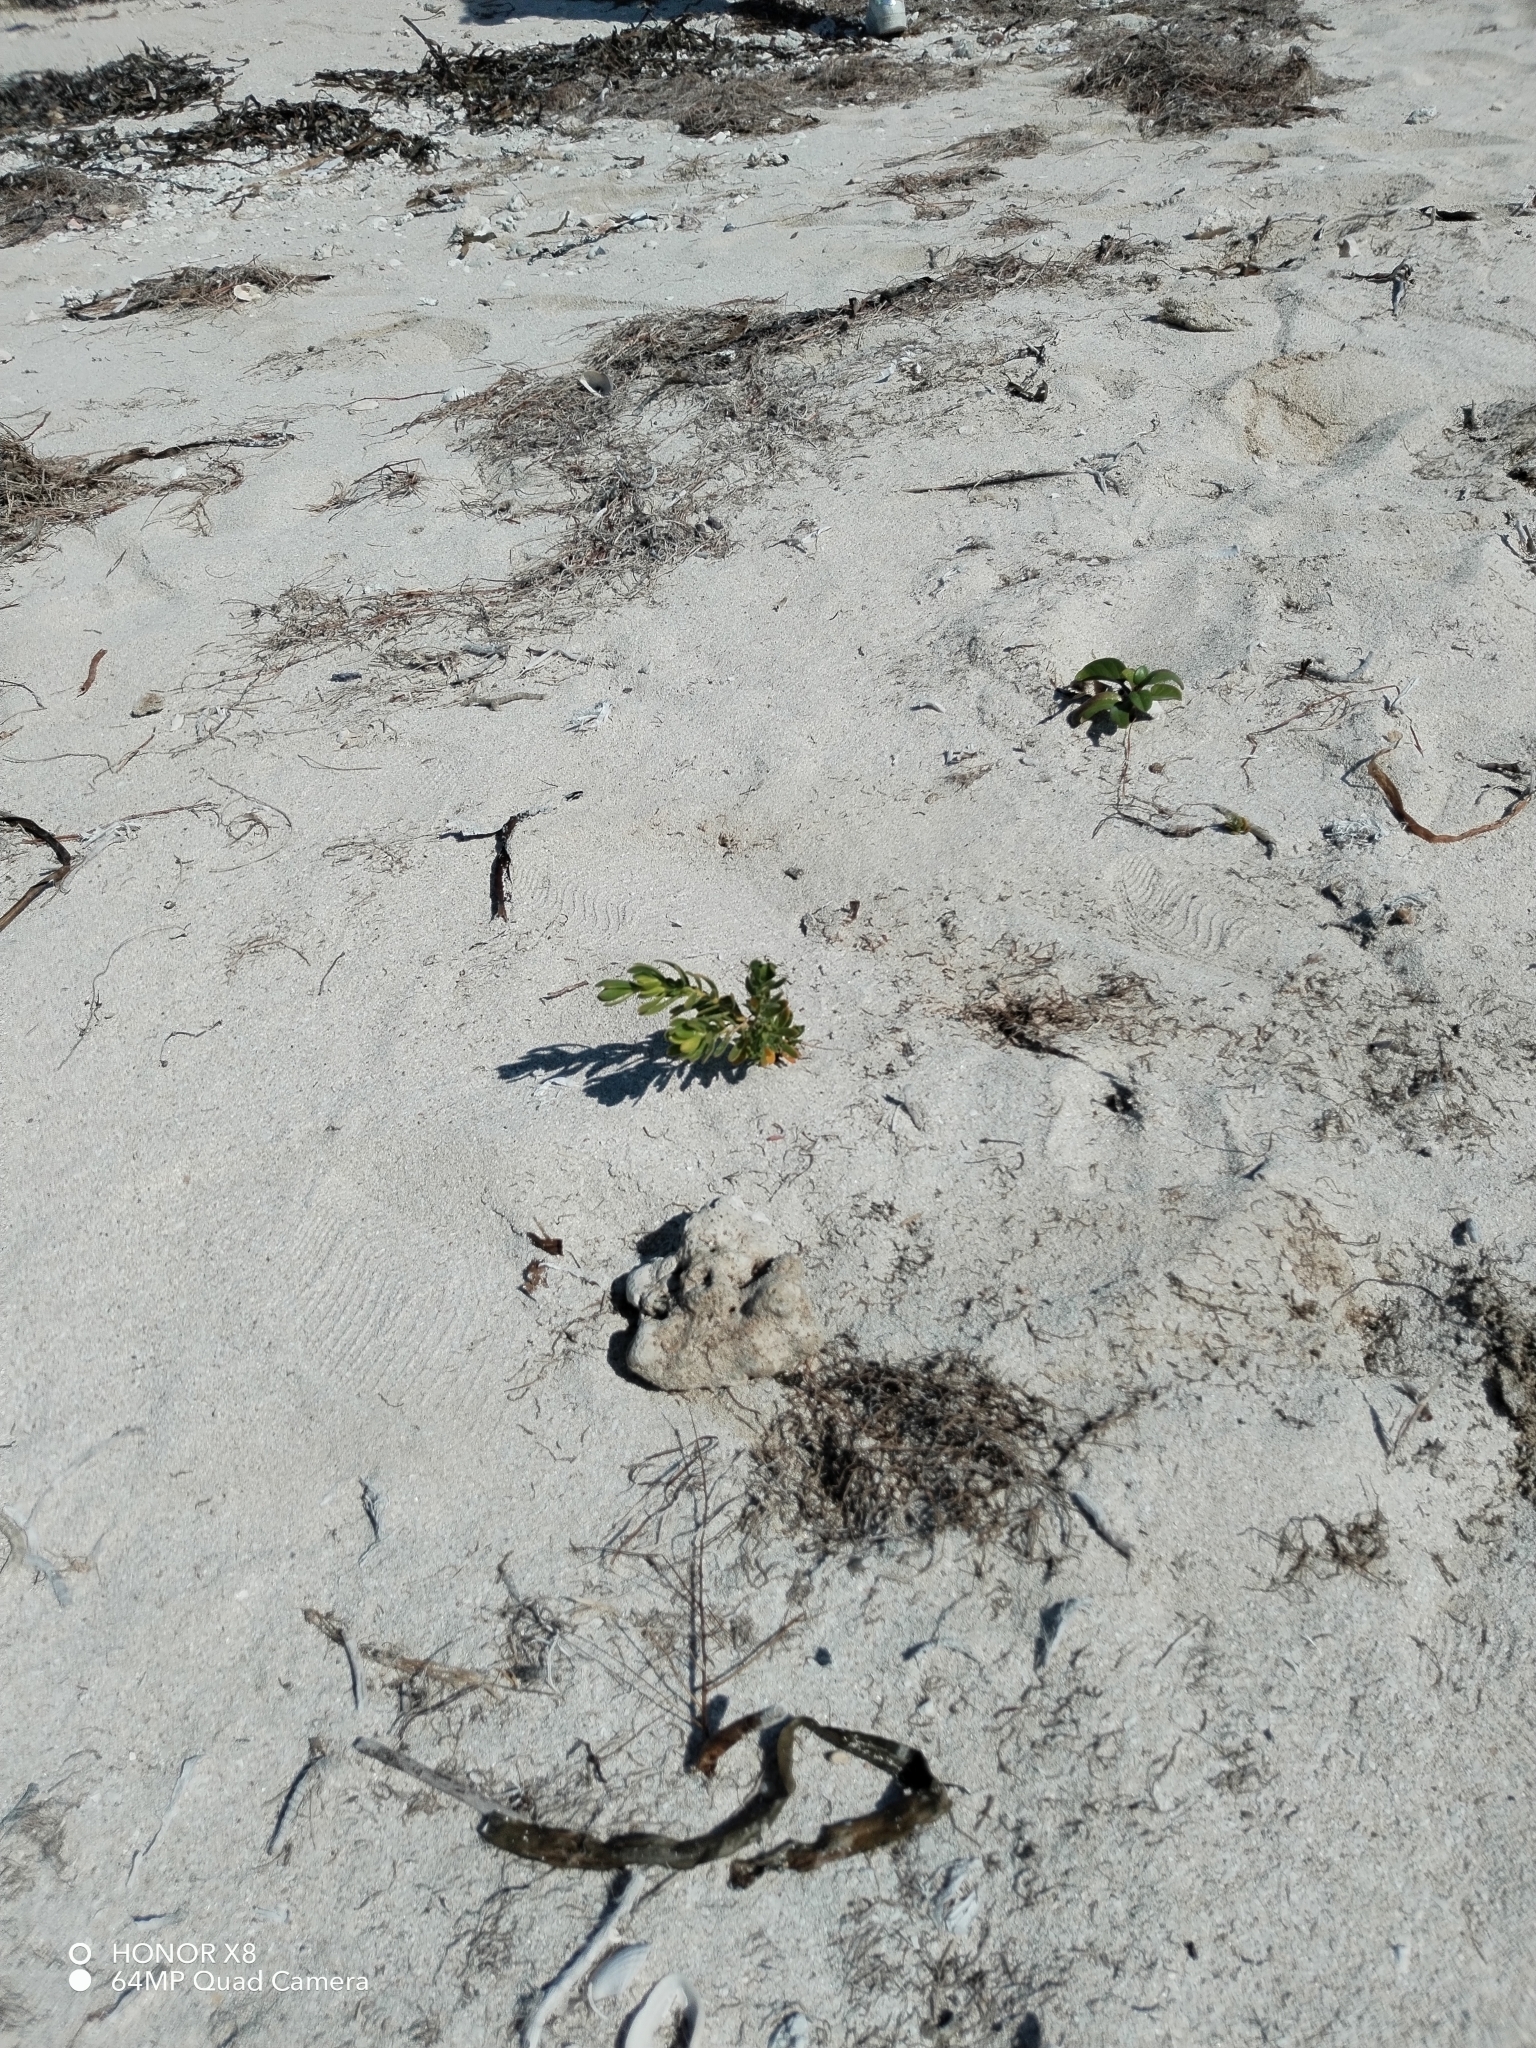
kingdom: Plantae
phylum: Tracheophyta
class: Magnoliopsida
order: Fabales
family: Surianaceae
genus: Suriana
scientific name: Suriana maritima
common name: Bay-cedar
